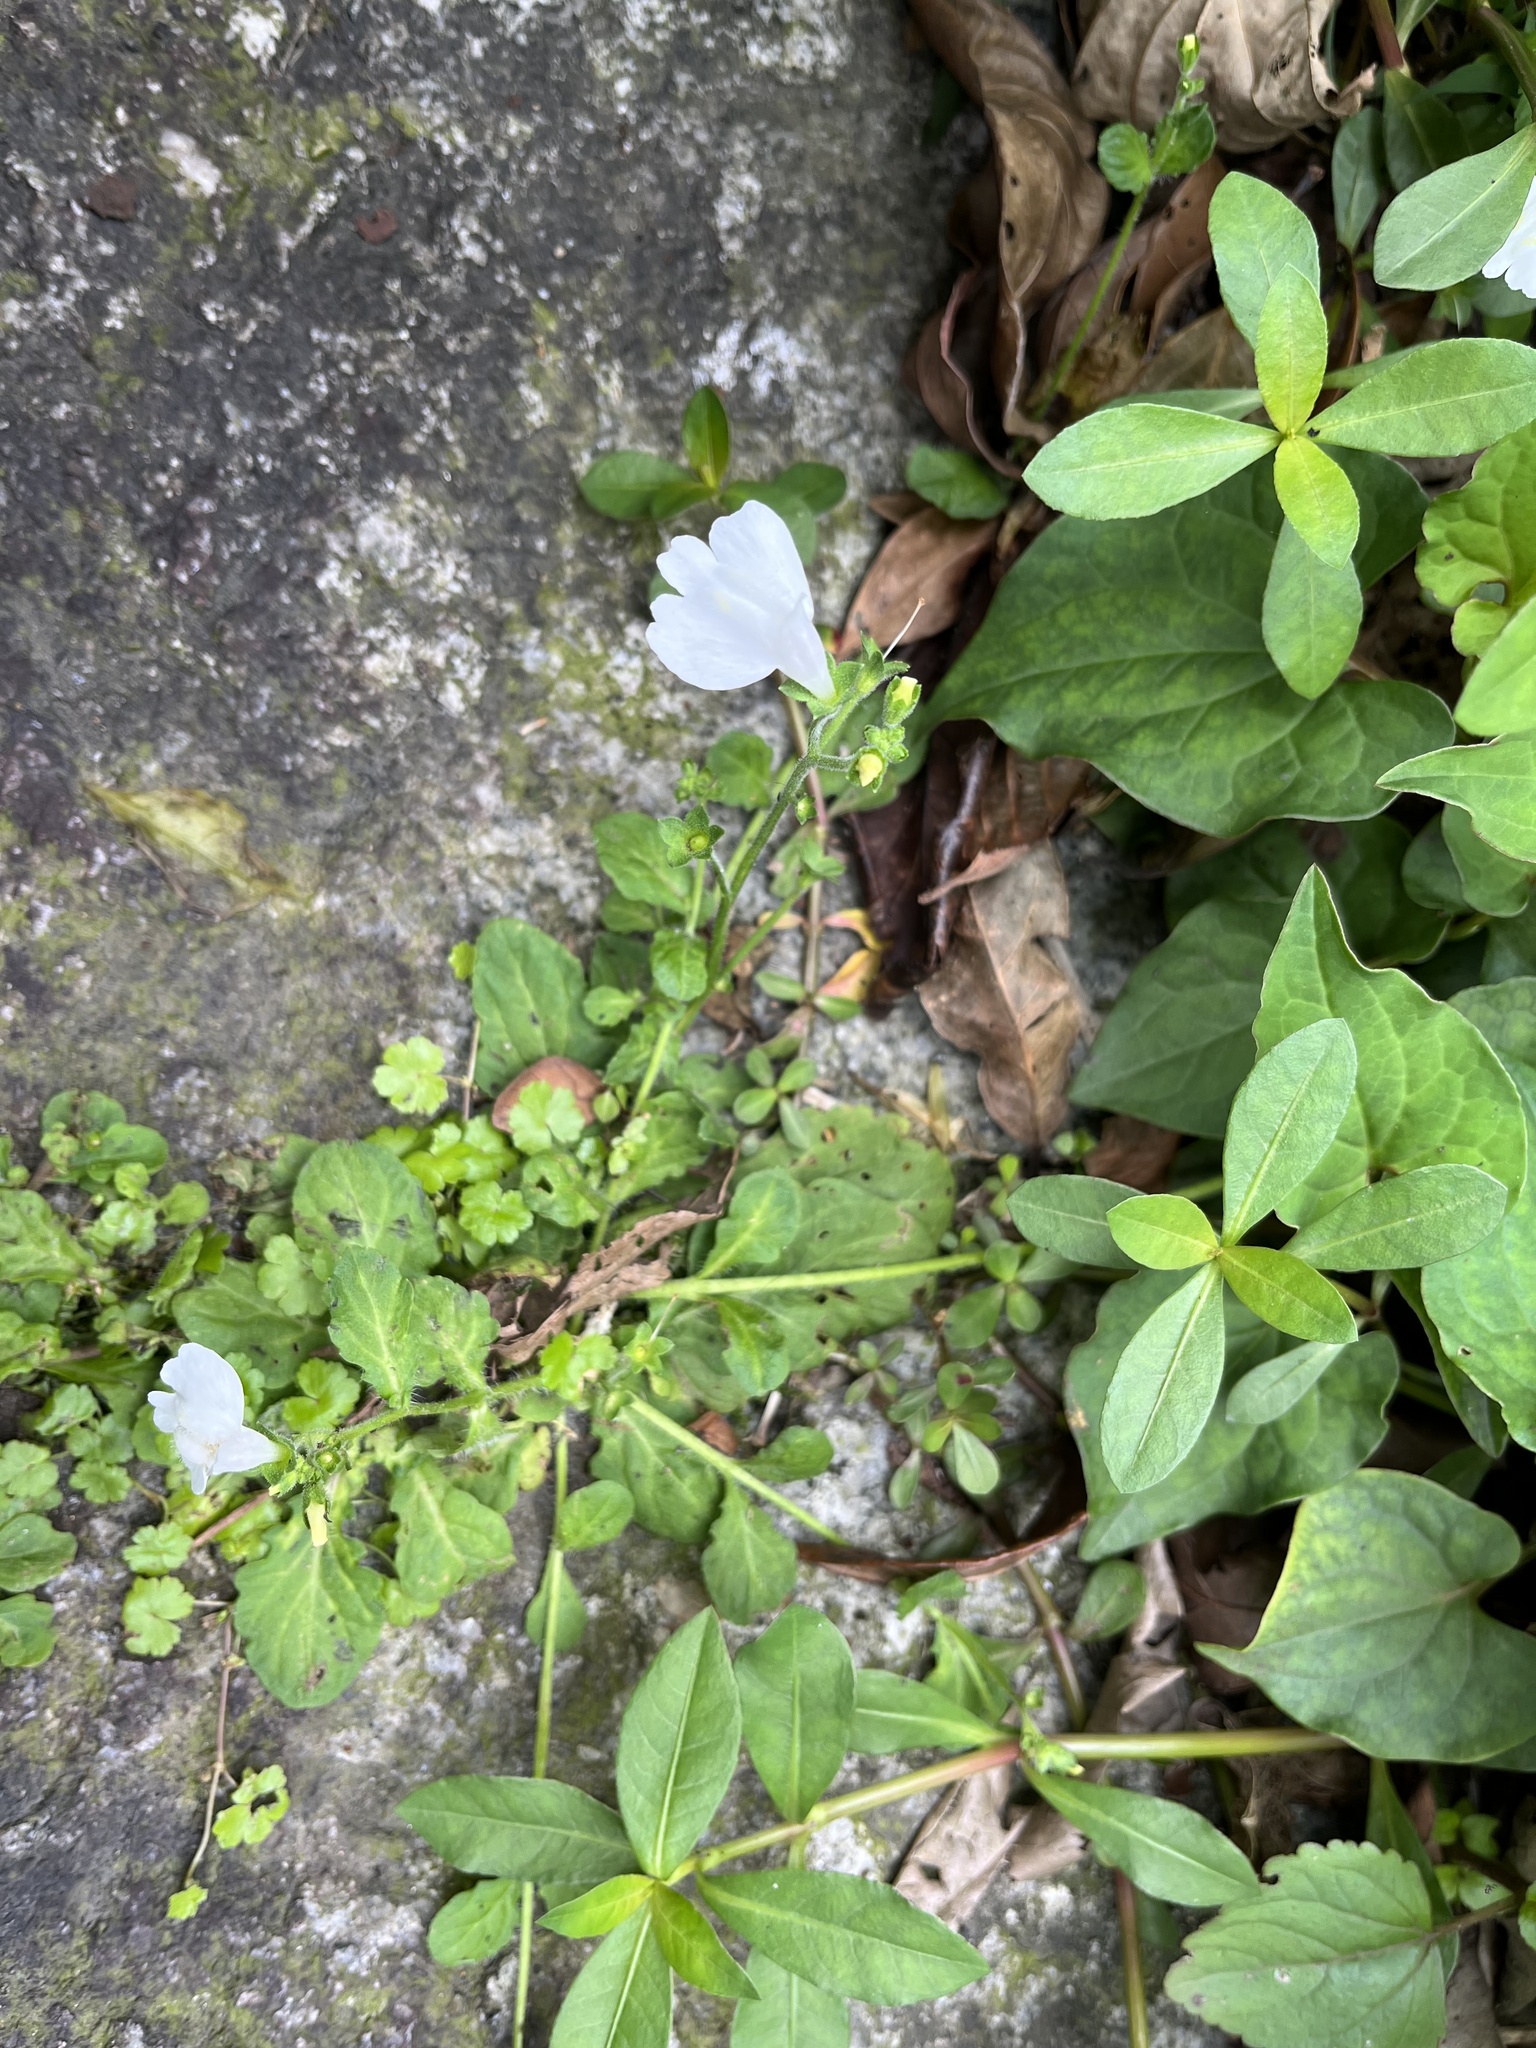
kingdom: Plantae
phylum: Tracheophyta
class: Magnoliopsida
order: Lamiales
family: Mazaceae
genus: Mazus
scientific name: Mazus fauriei
